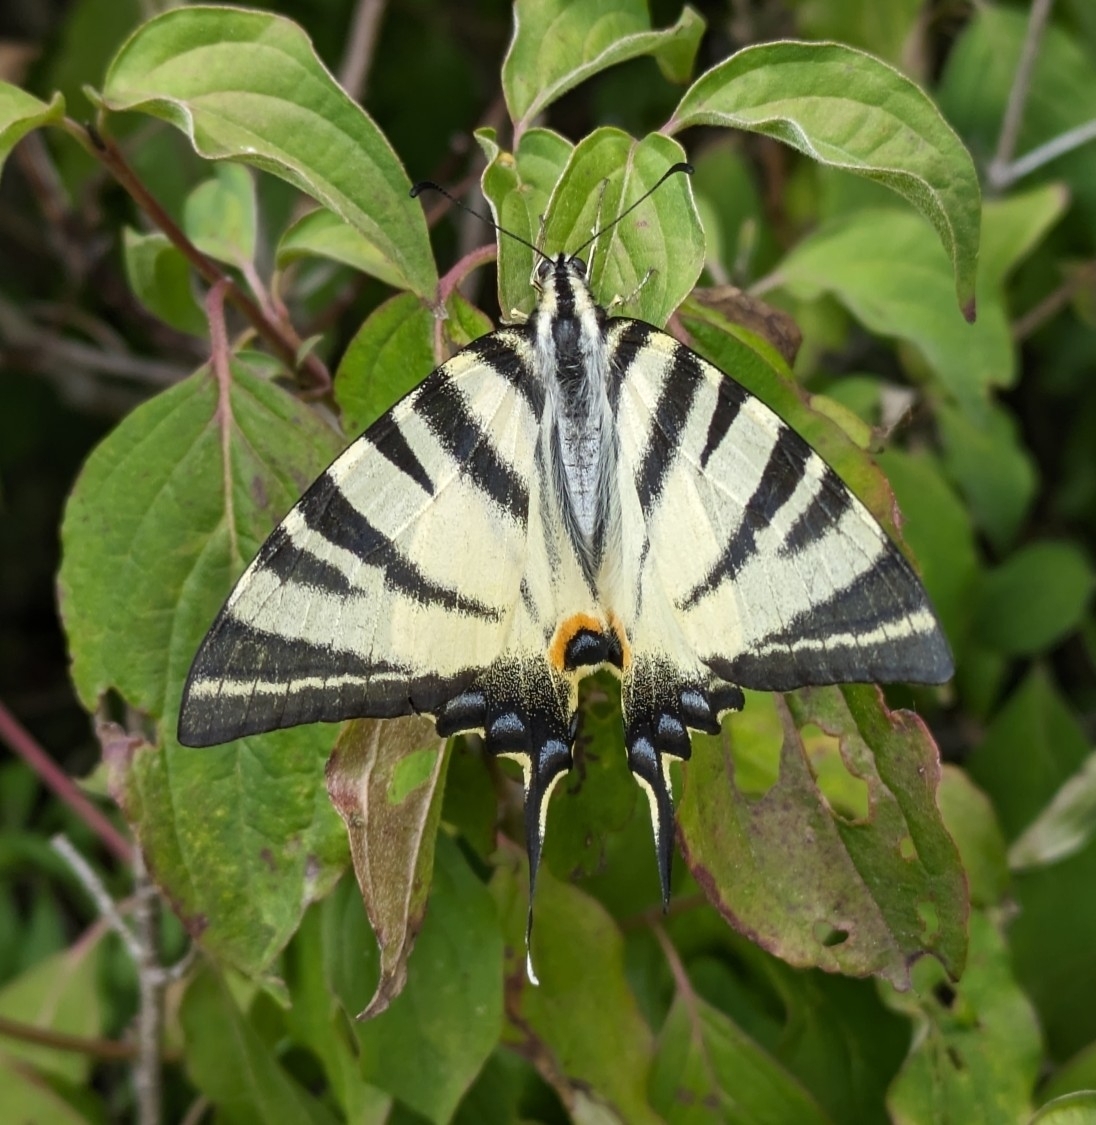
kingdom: Animalia
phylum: Arthropoda
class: Insecta
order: Lepidoptera
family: Papilionidae
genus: Iphiclides
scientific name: Iphiclides podalirius
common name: Scarce swallowtail
